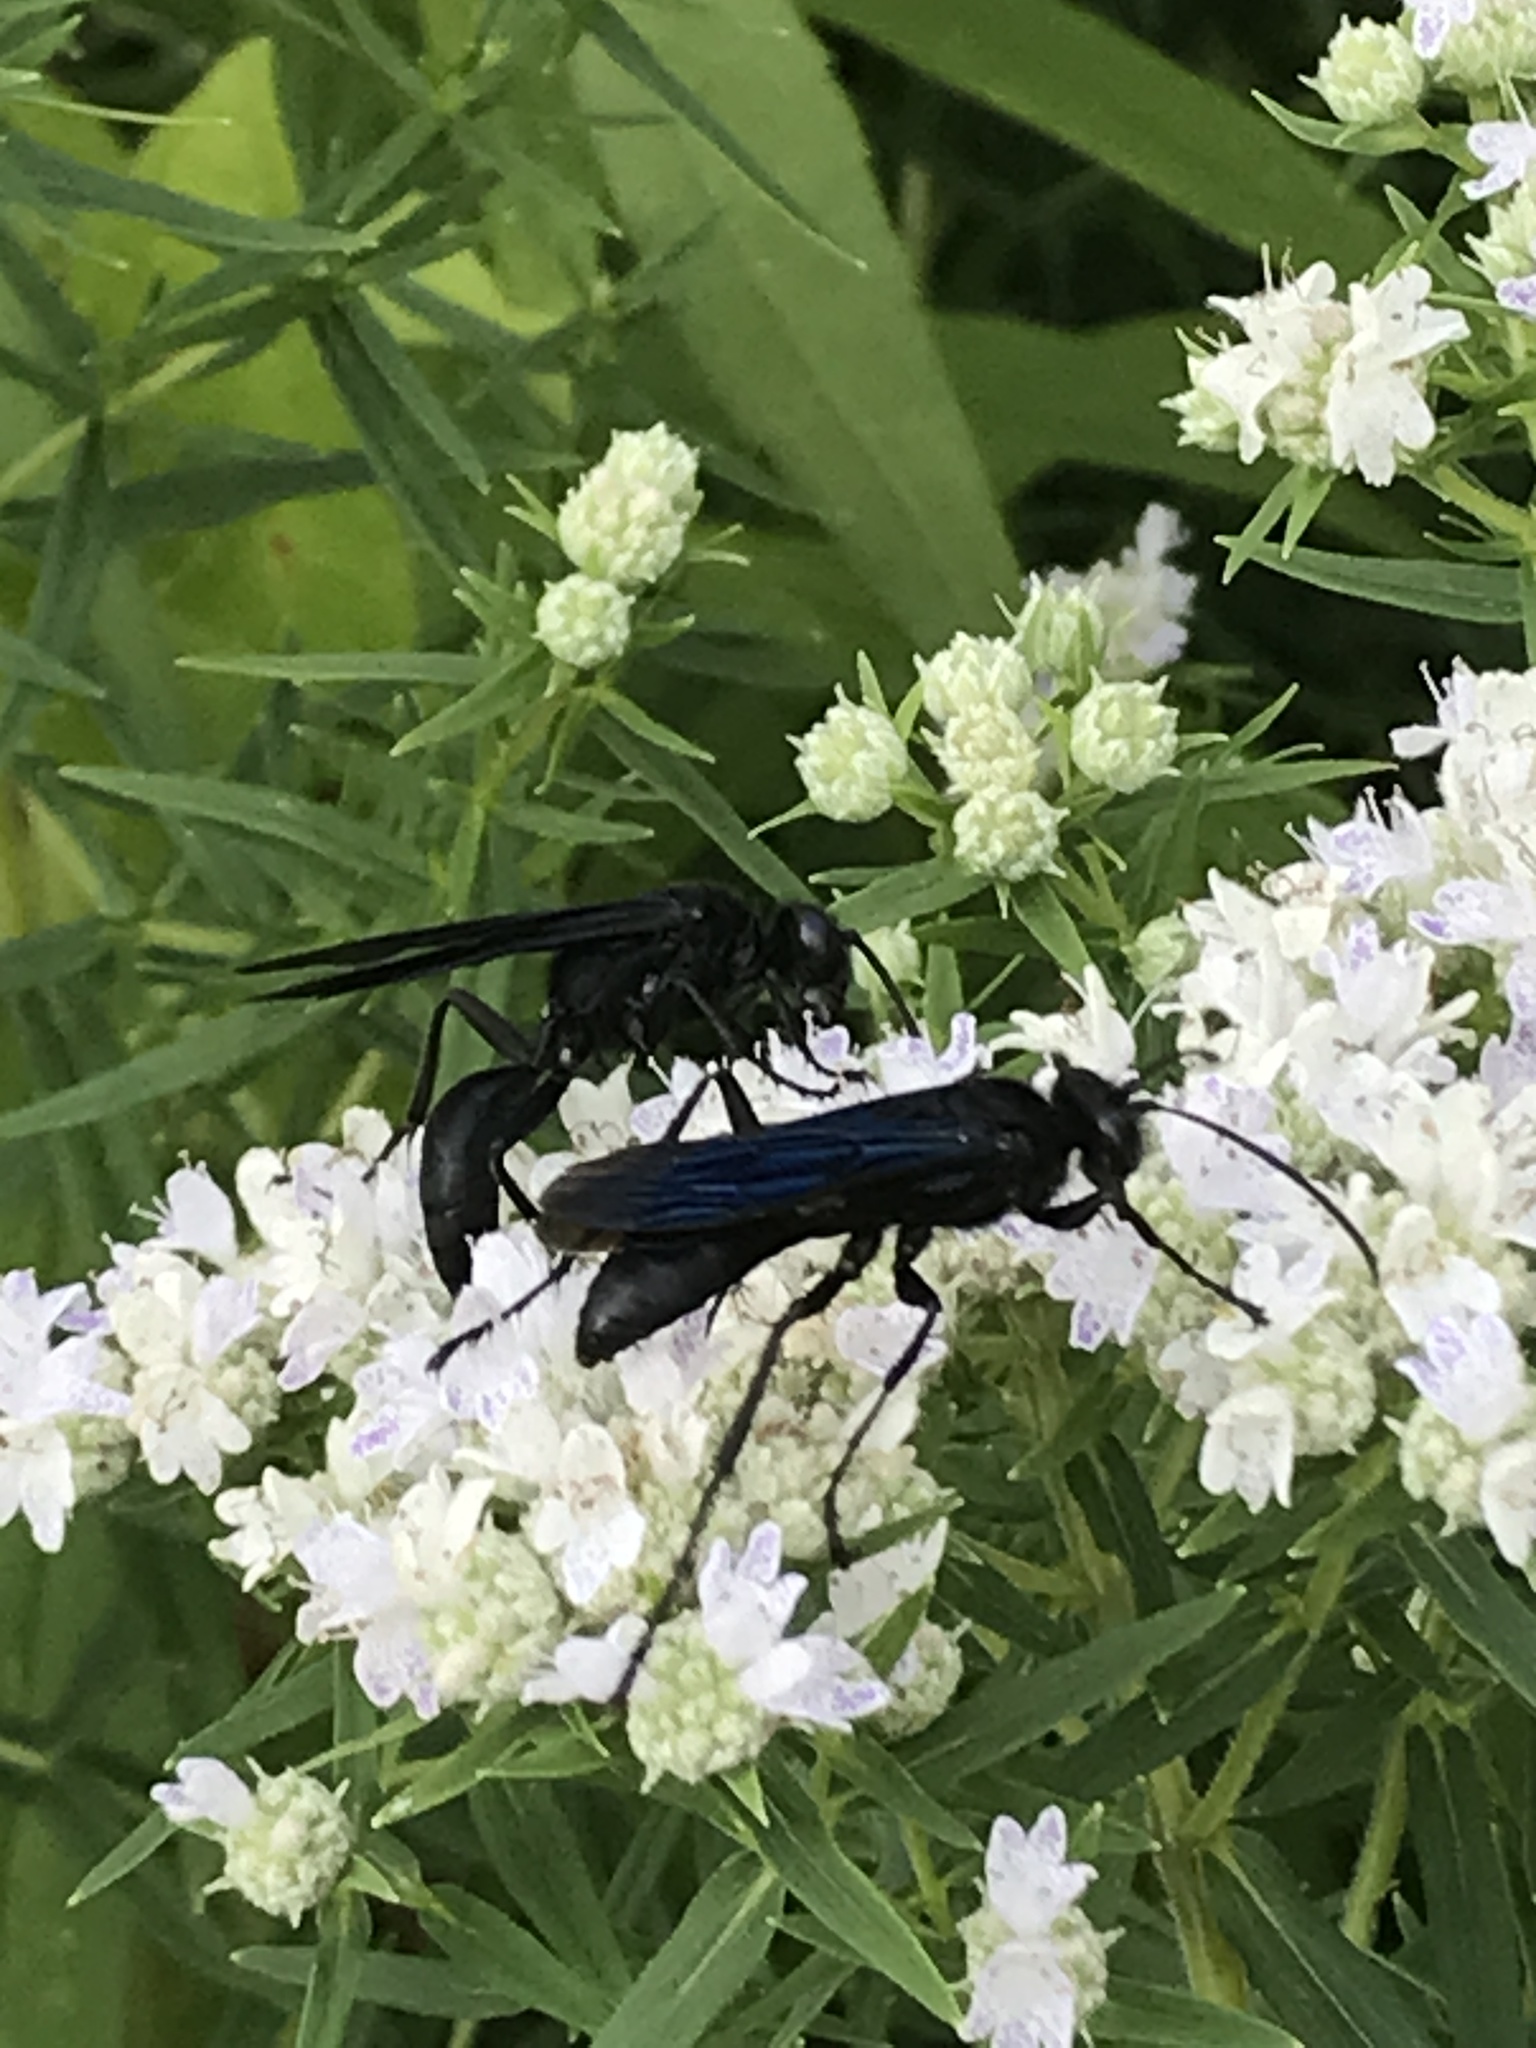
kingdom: Animalia
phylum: Arthropoda
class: Insecta
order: Hymenoptera
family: Sphecidae
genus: Sphex
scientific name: Sphex pensylvanicus
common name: Great black digger wasp
